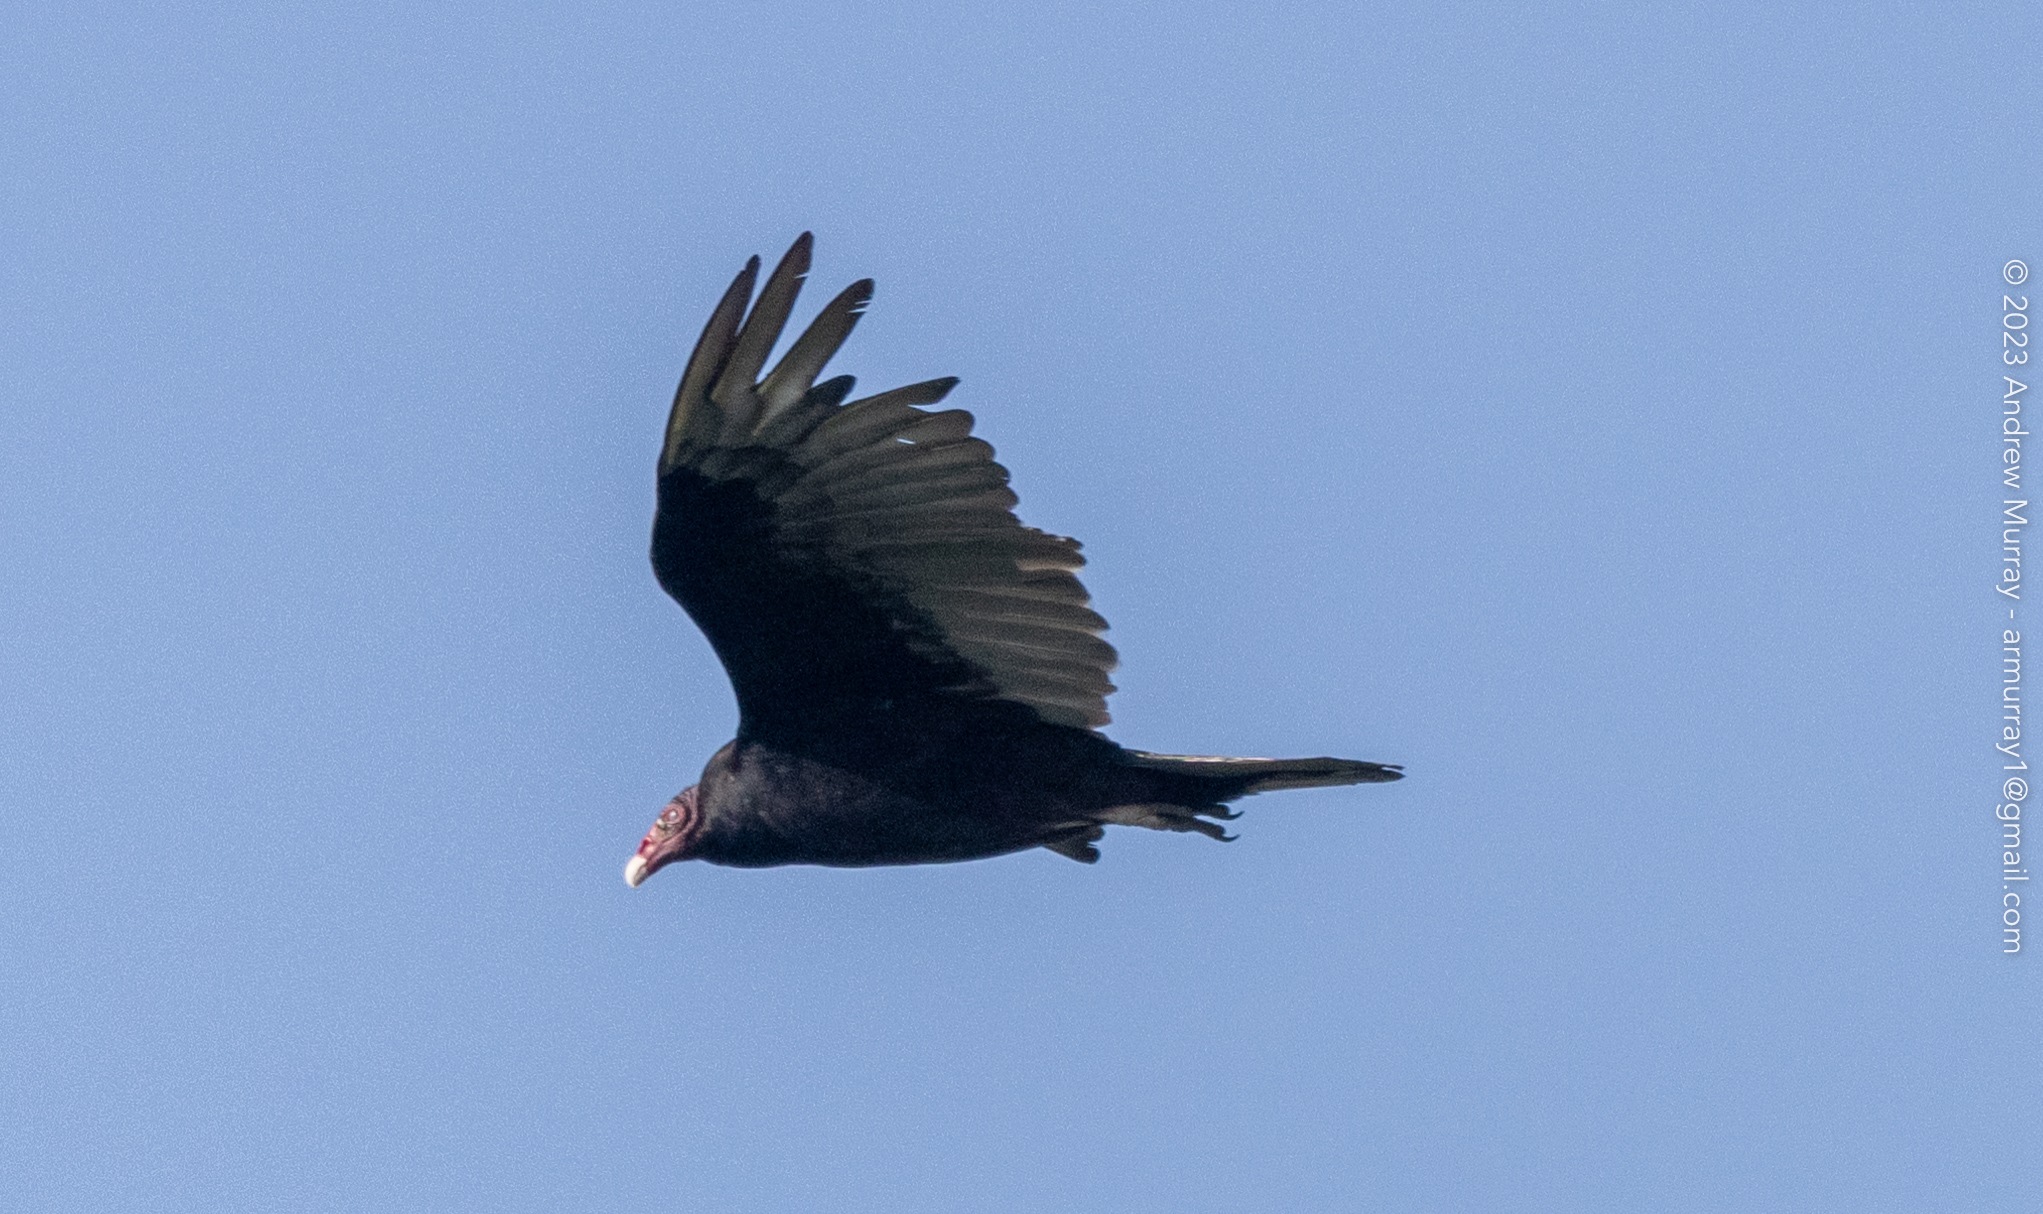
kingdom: Animalia
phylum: Chordata
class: Aves
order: Accipitriformes
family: Cathartidae
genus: Cathartes
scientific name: Cathartes aura
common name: Turkey vulture
